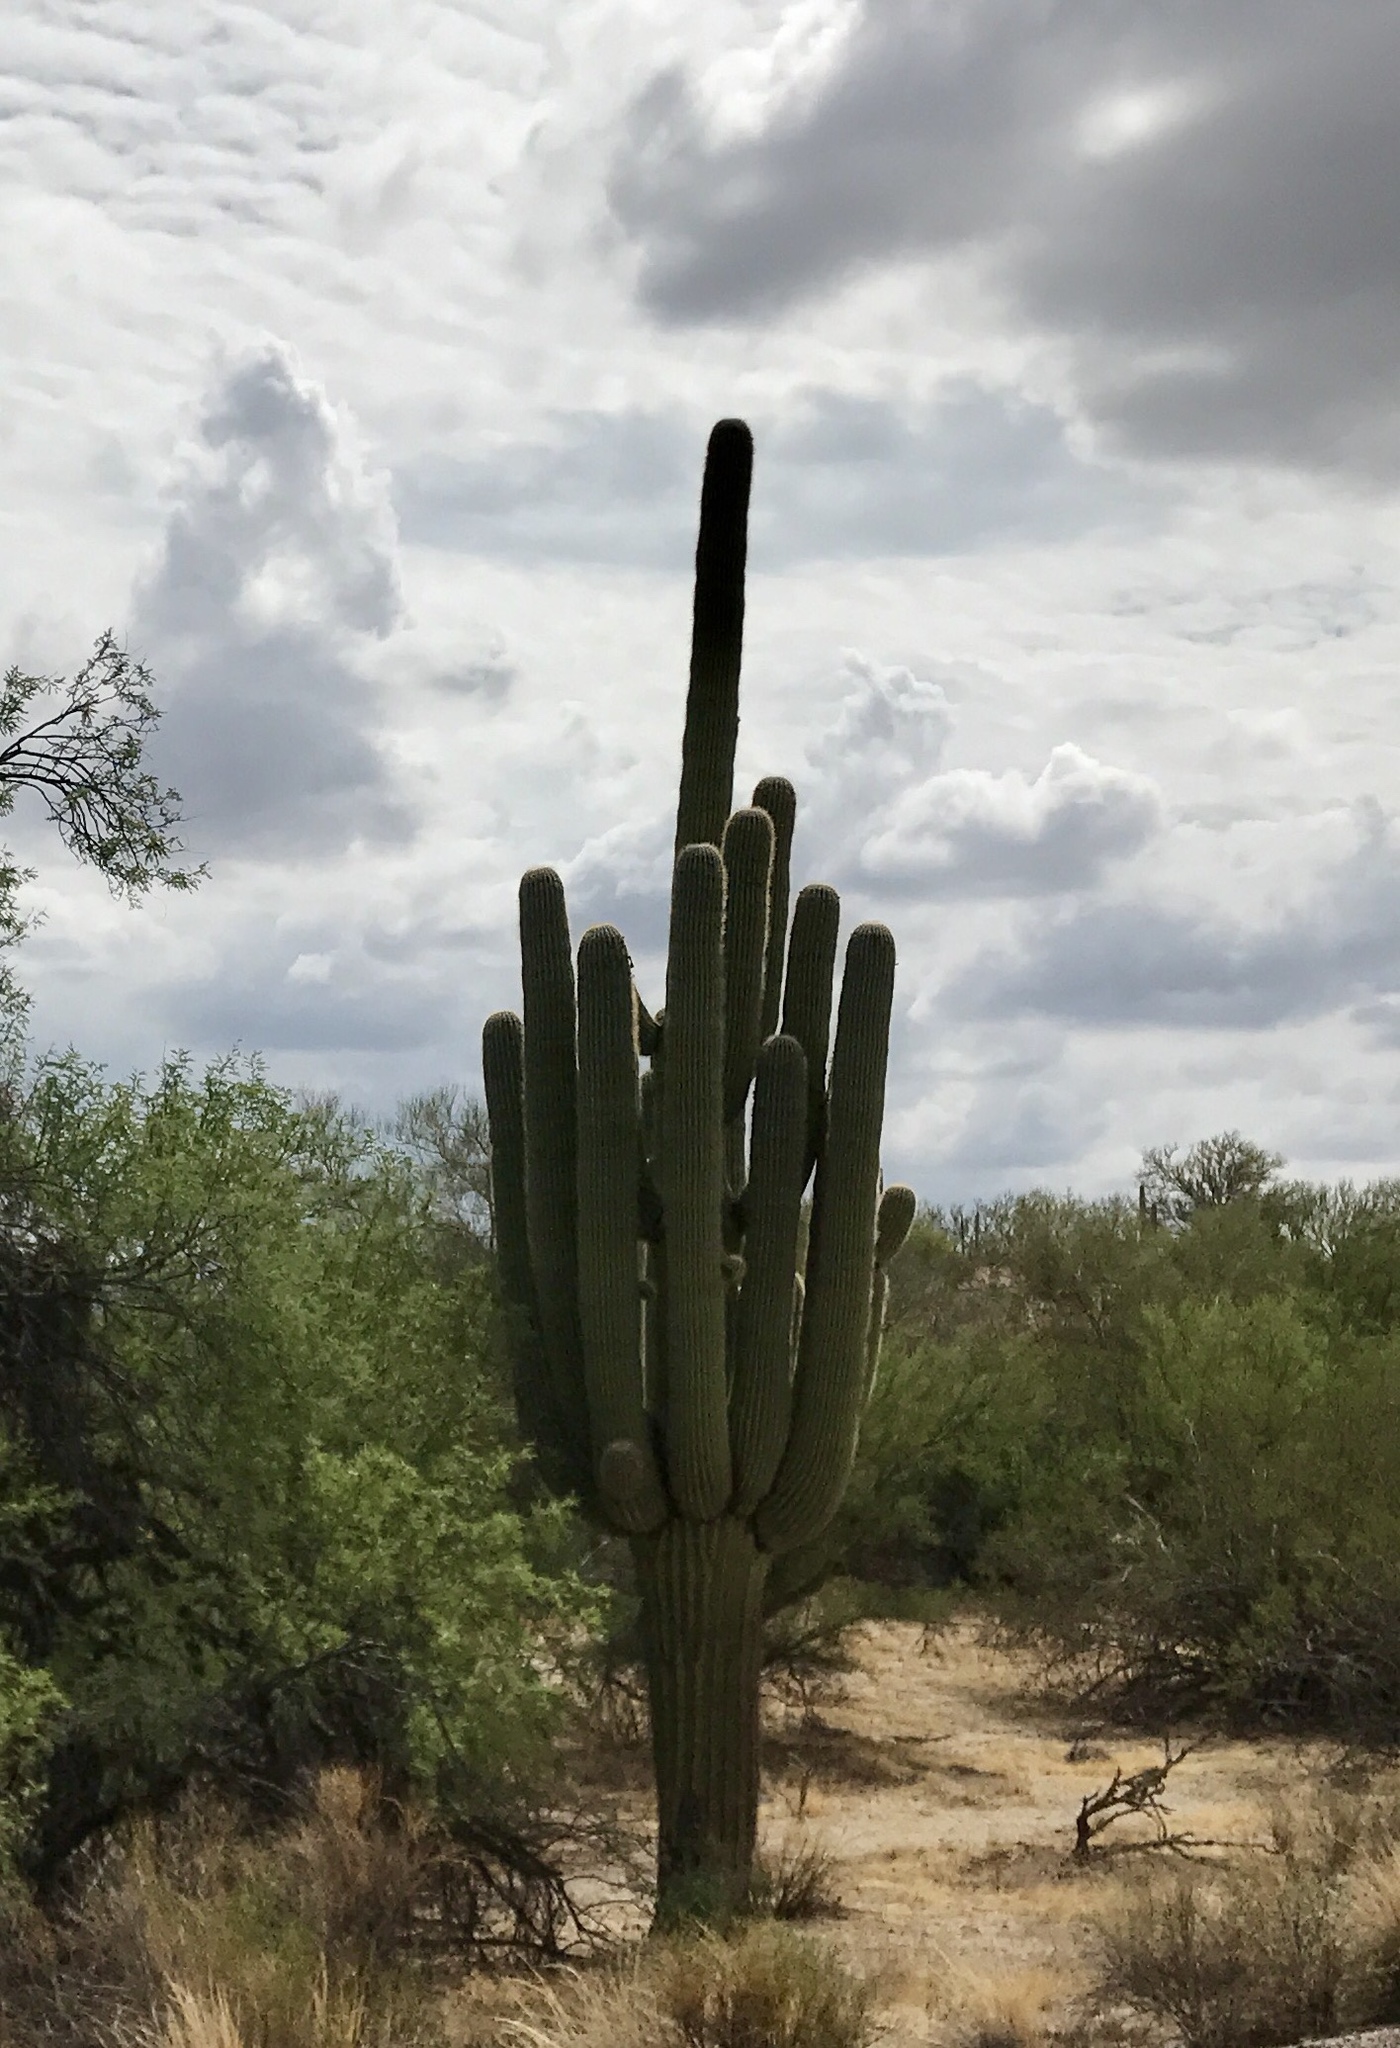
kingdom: Plantae
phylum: Tracheophyta
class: Magnoliopsida
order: Caryophyllales
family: Cactaceae
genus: Carnegiea
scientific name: Carnegiea gigantea
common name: Saguaro
